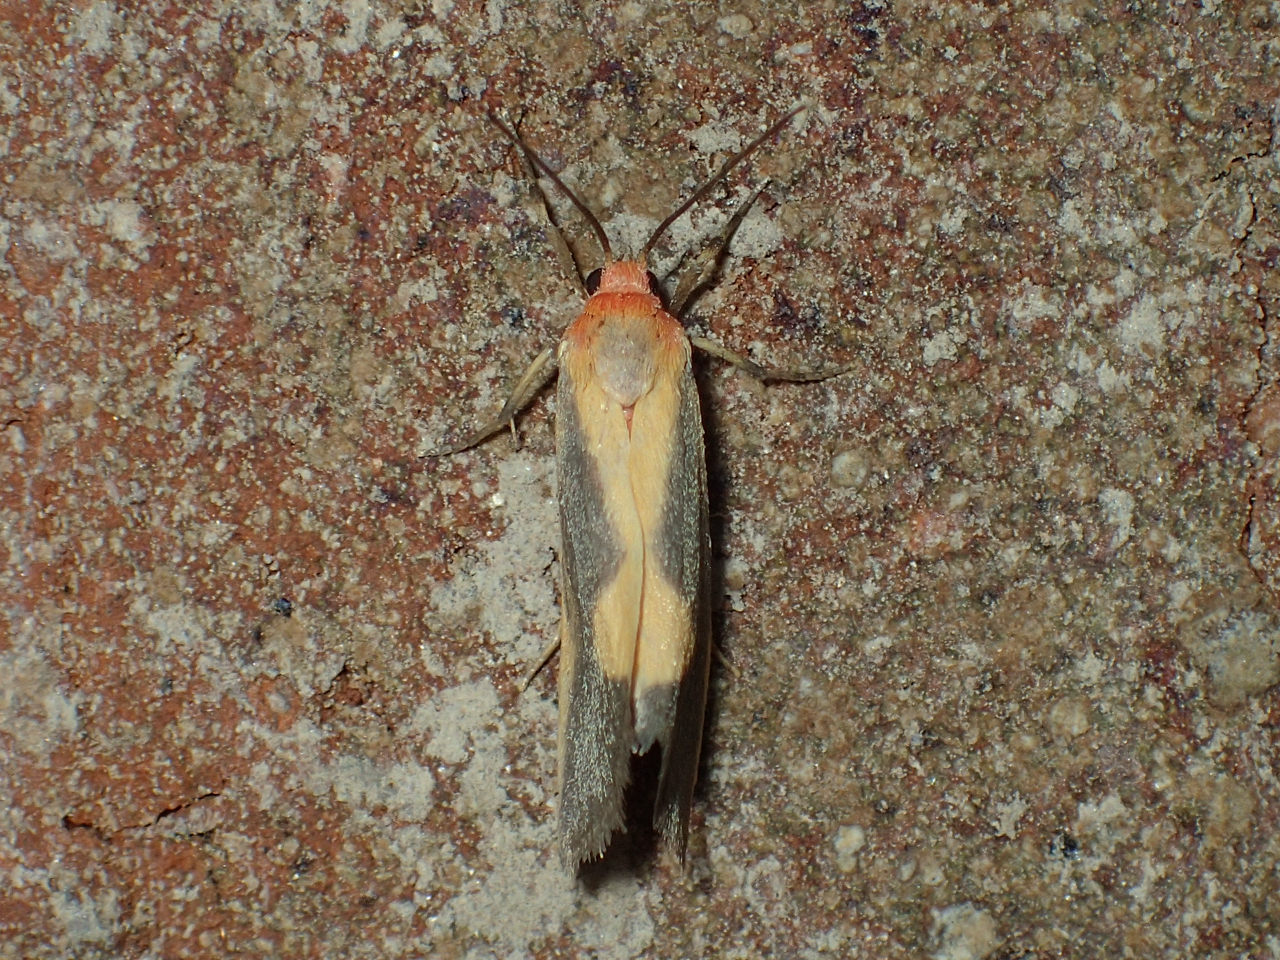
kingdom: Animalia
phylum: Arthropoda
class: Insecta
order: Lepidoptera
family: Erebidae
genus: Cisthene
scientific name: Cisthene plumbea
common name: Lead colored lichen moth
